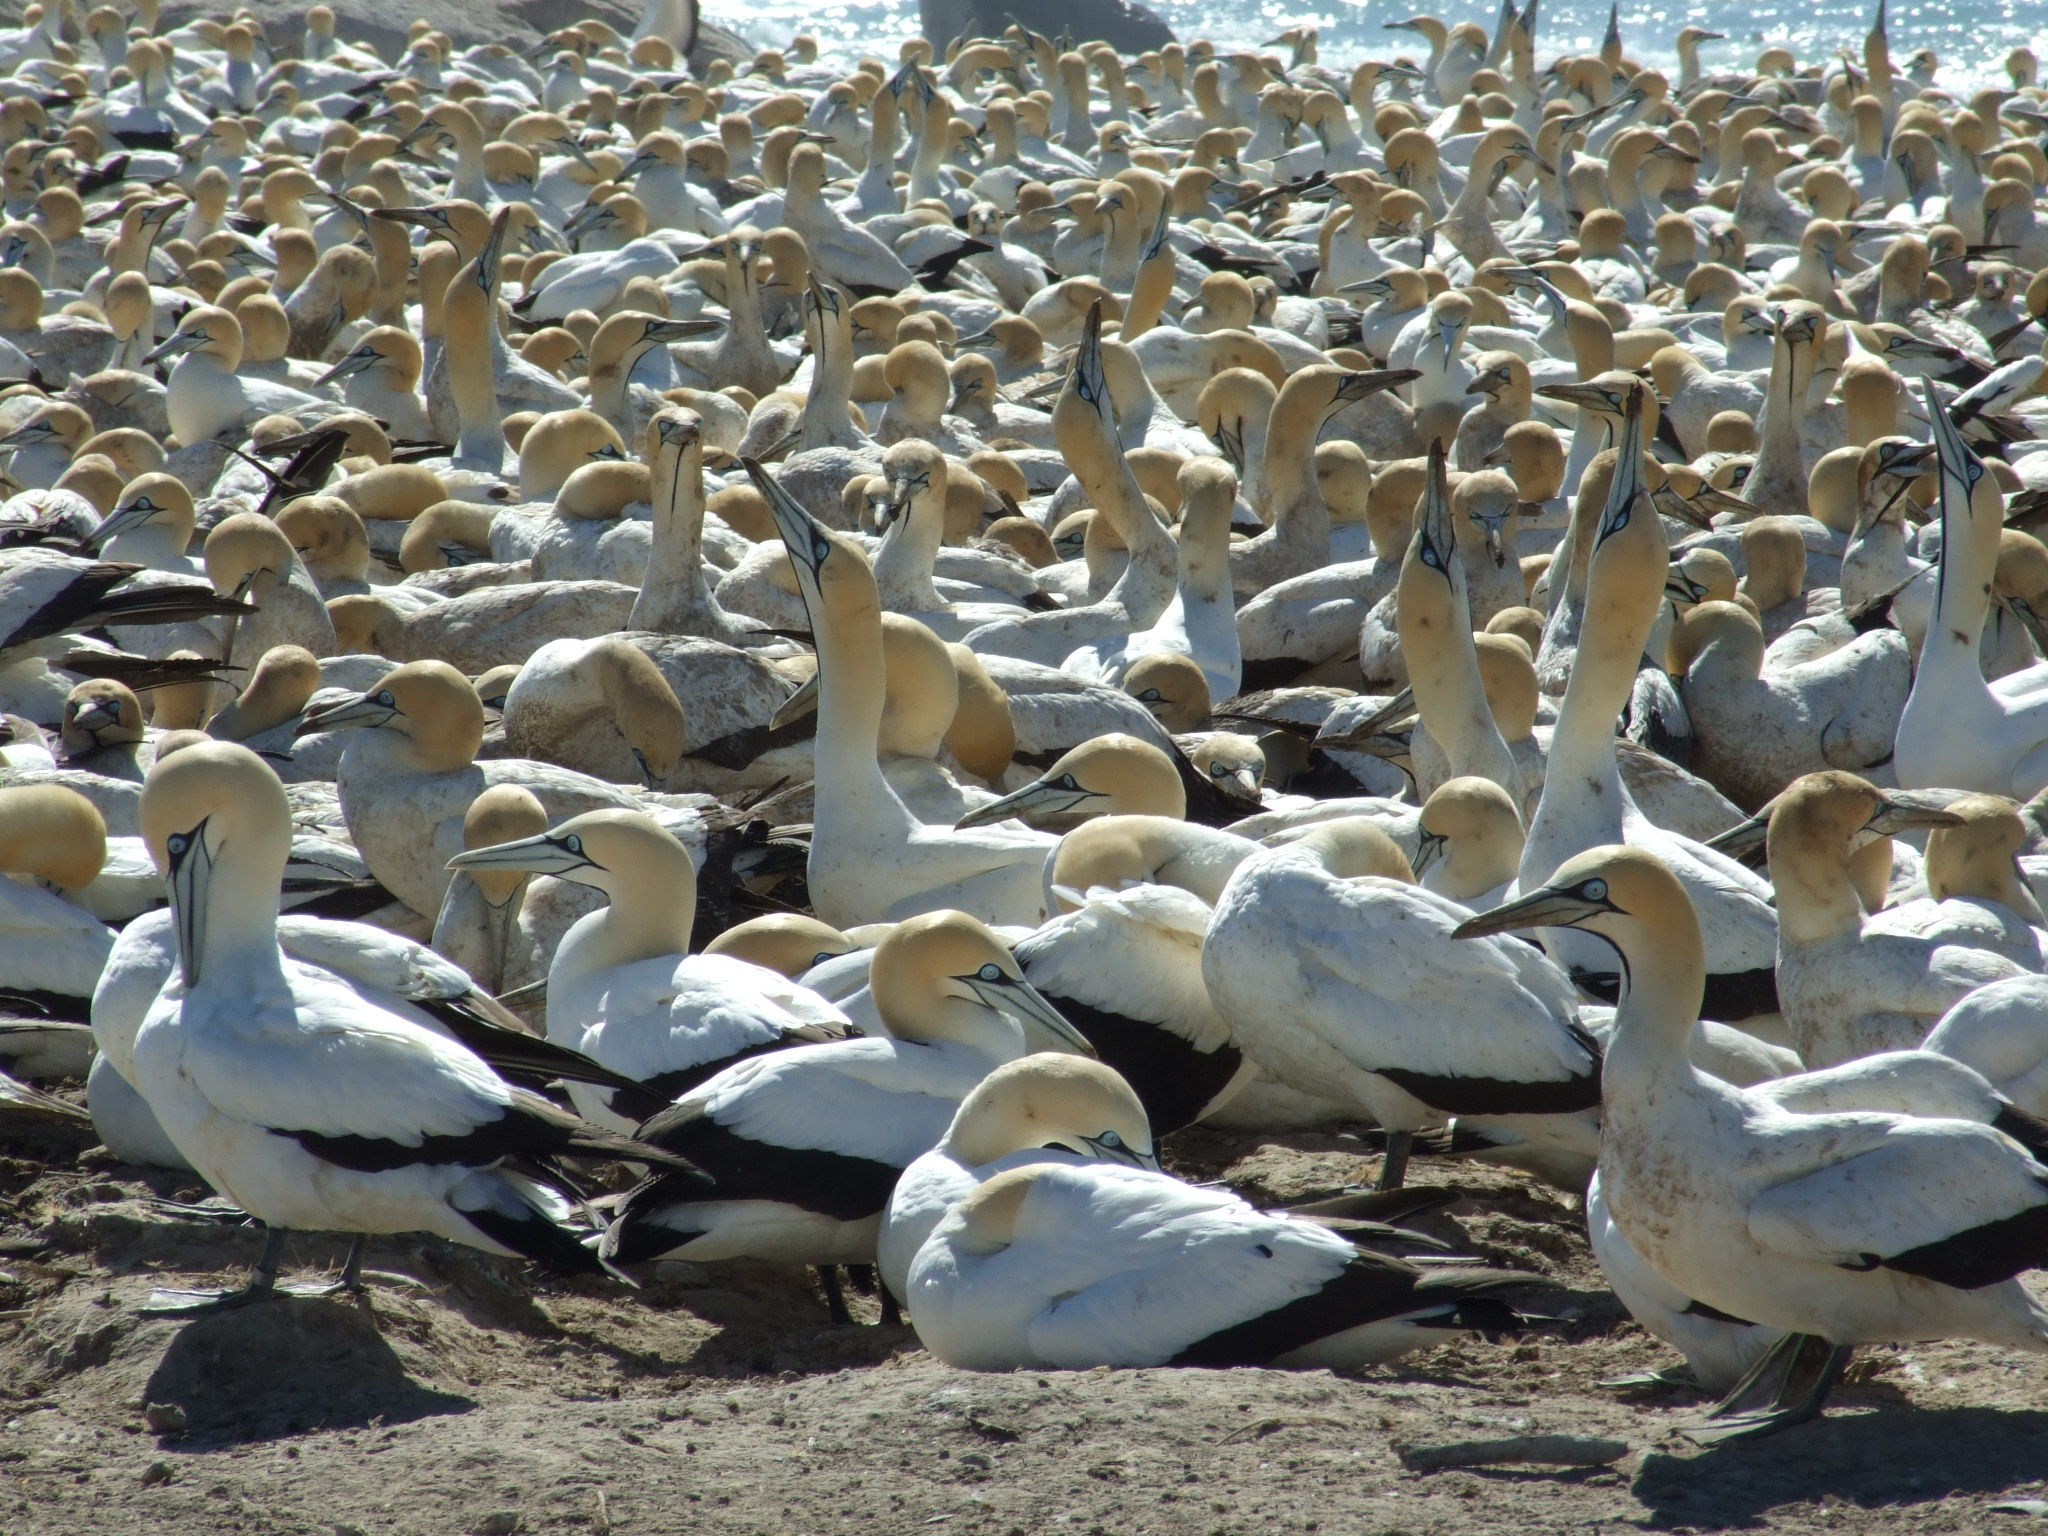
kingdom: Animalia
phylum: Chordata
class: Aves
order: Suliformes
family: Sulidae
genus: Morus
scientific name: Morus capensis
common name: Cape gannet
